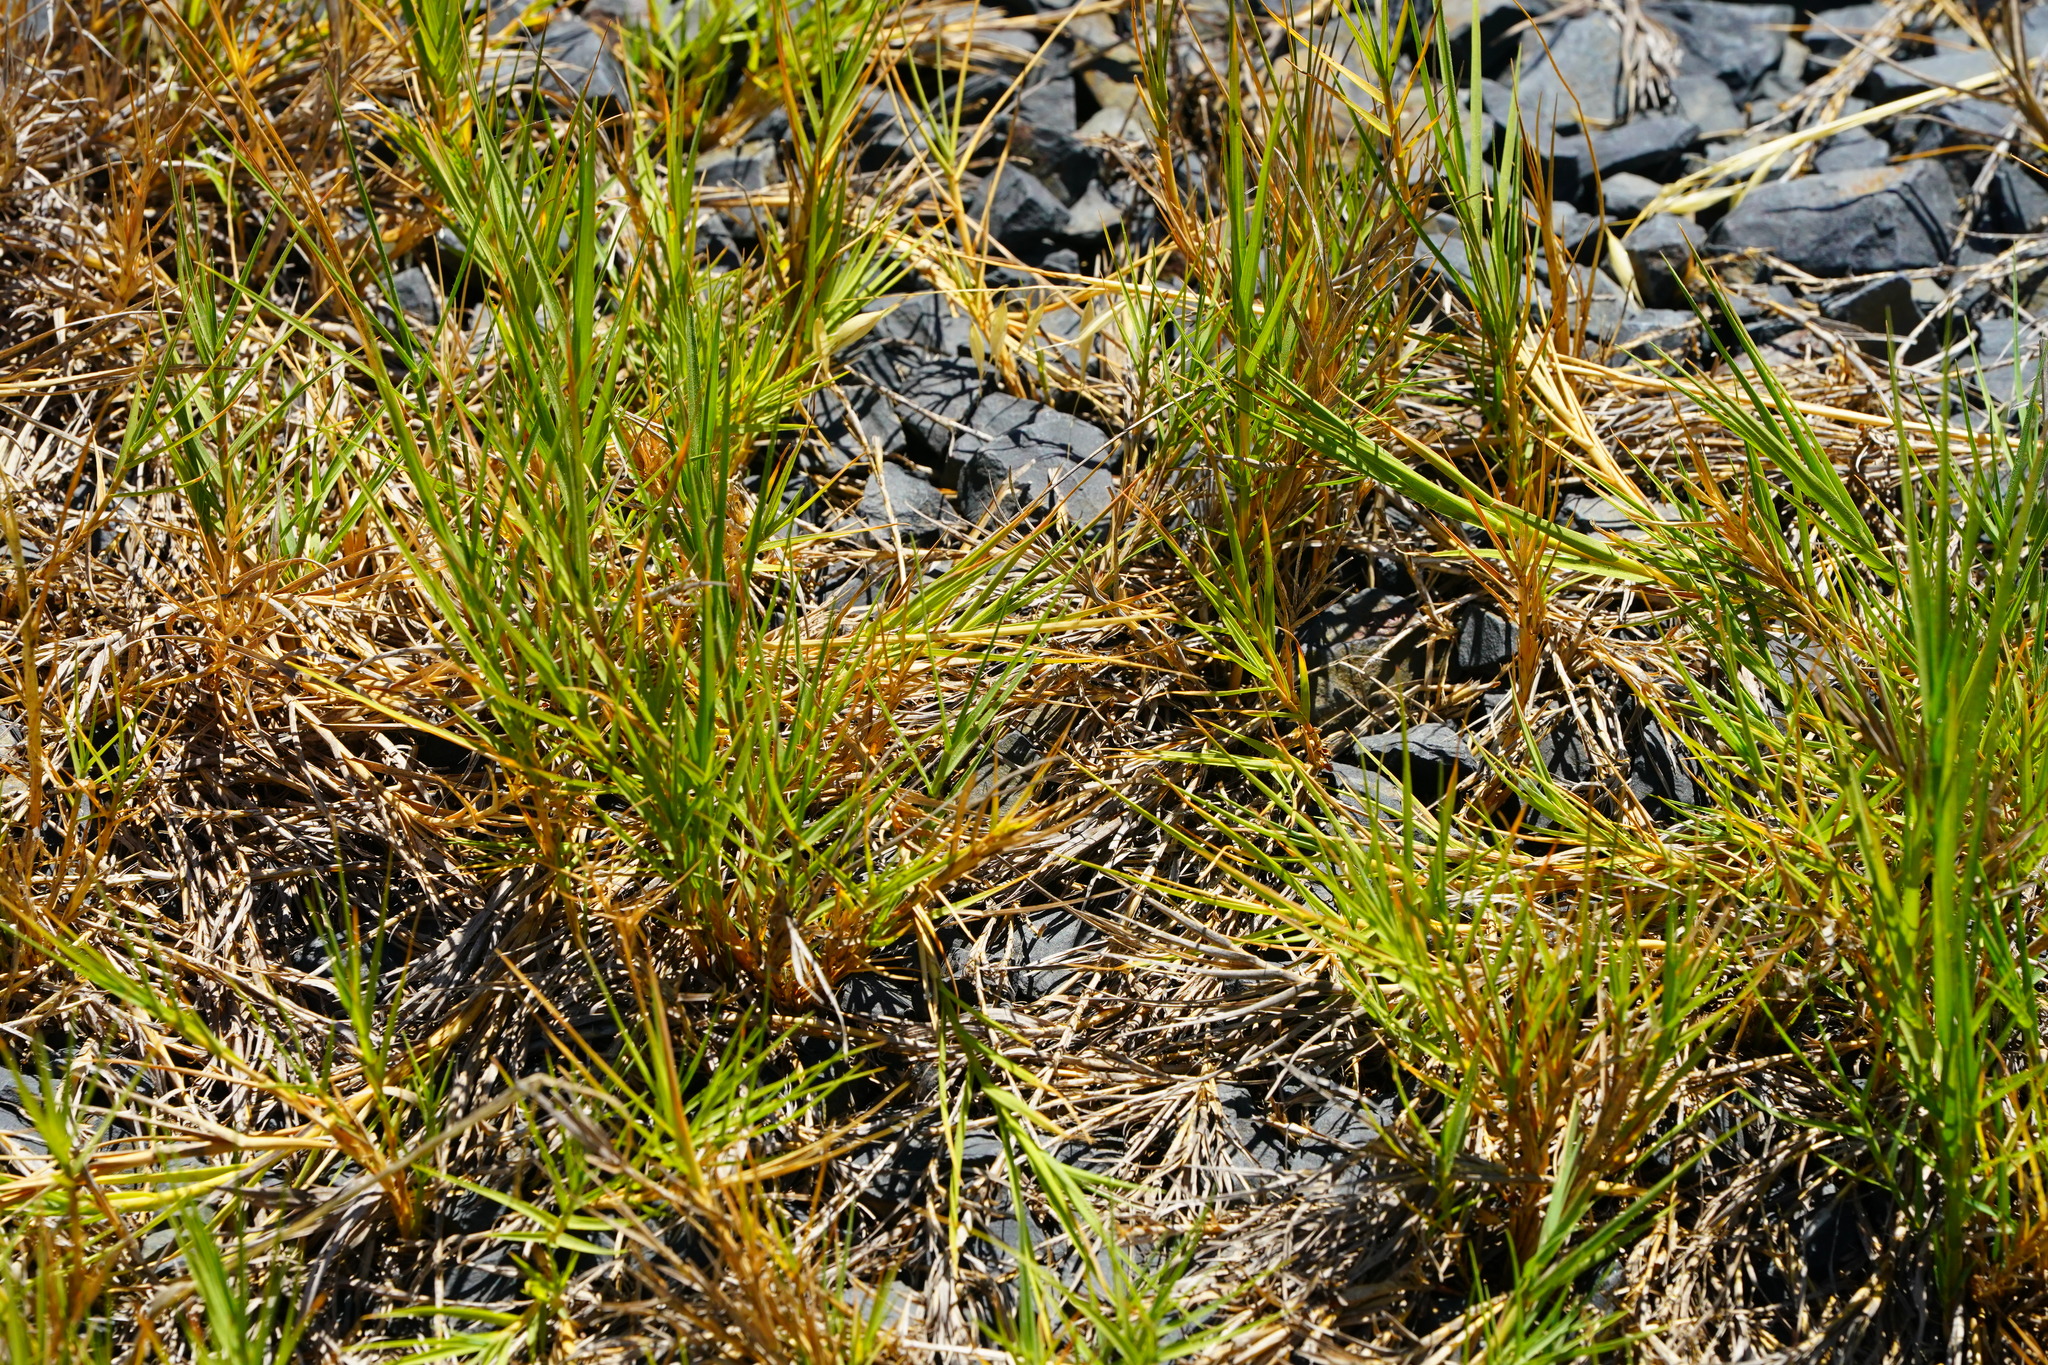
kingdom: Plantae
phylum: Tracheophyta
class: Liliopsida
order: Poales
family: Poaceae
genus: Distichlis
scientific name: Distichlis spicata
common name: Saltgrass
